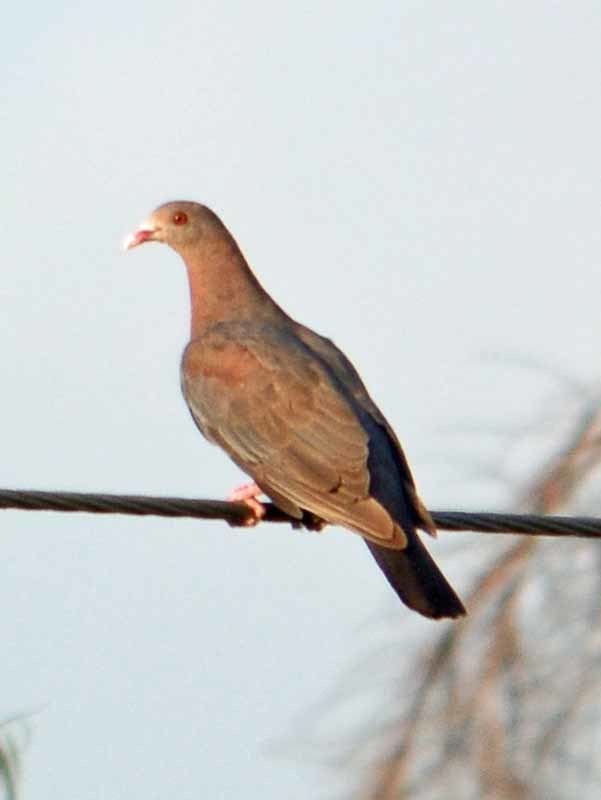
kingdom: Animalia
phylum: Chordata
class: Aves
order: Columbiformes
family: Columbidae
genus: Patagioenas
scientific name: Patagioenas flavirostris
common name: Red-billed pigeon
